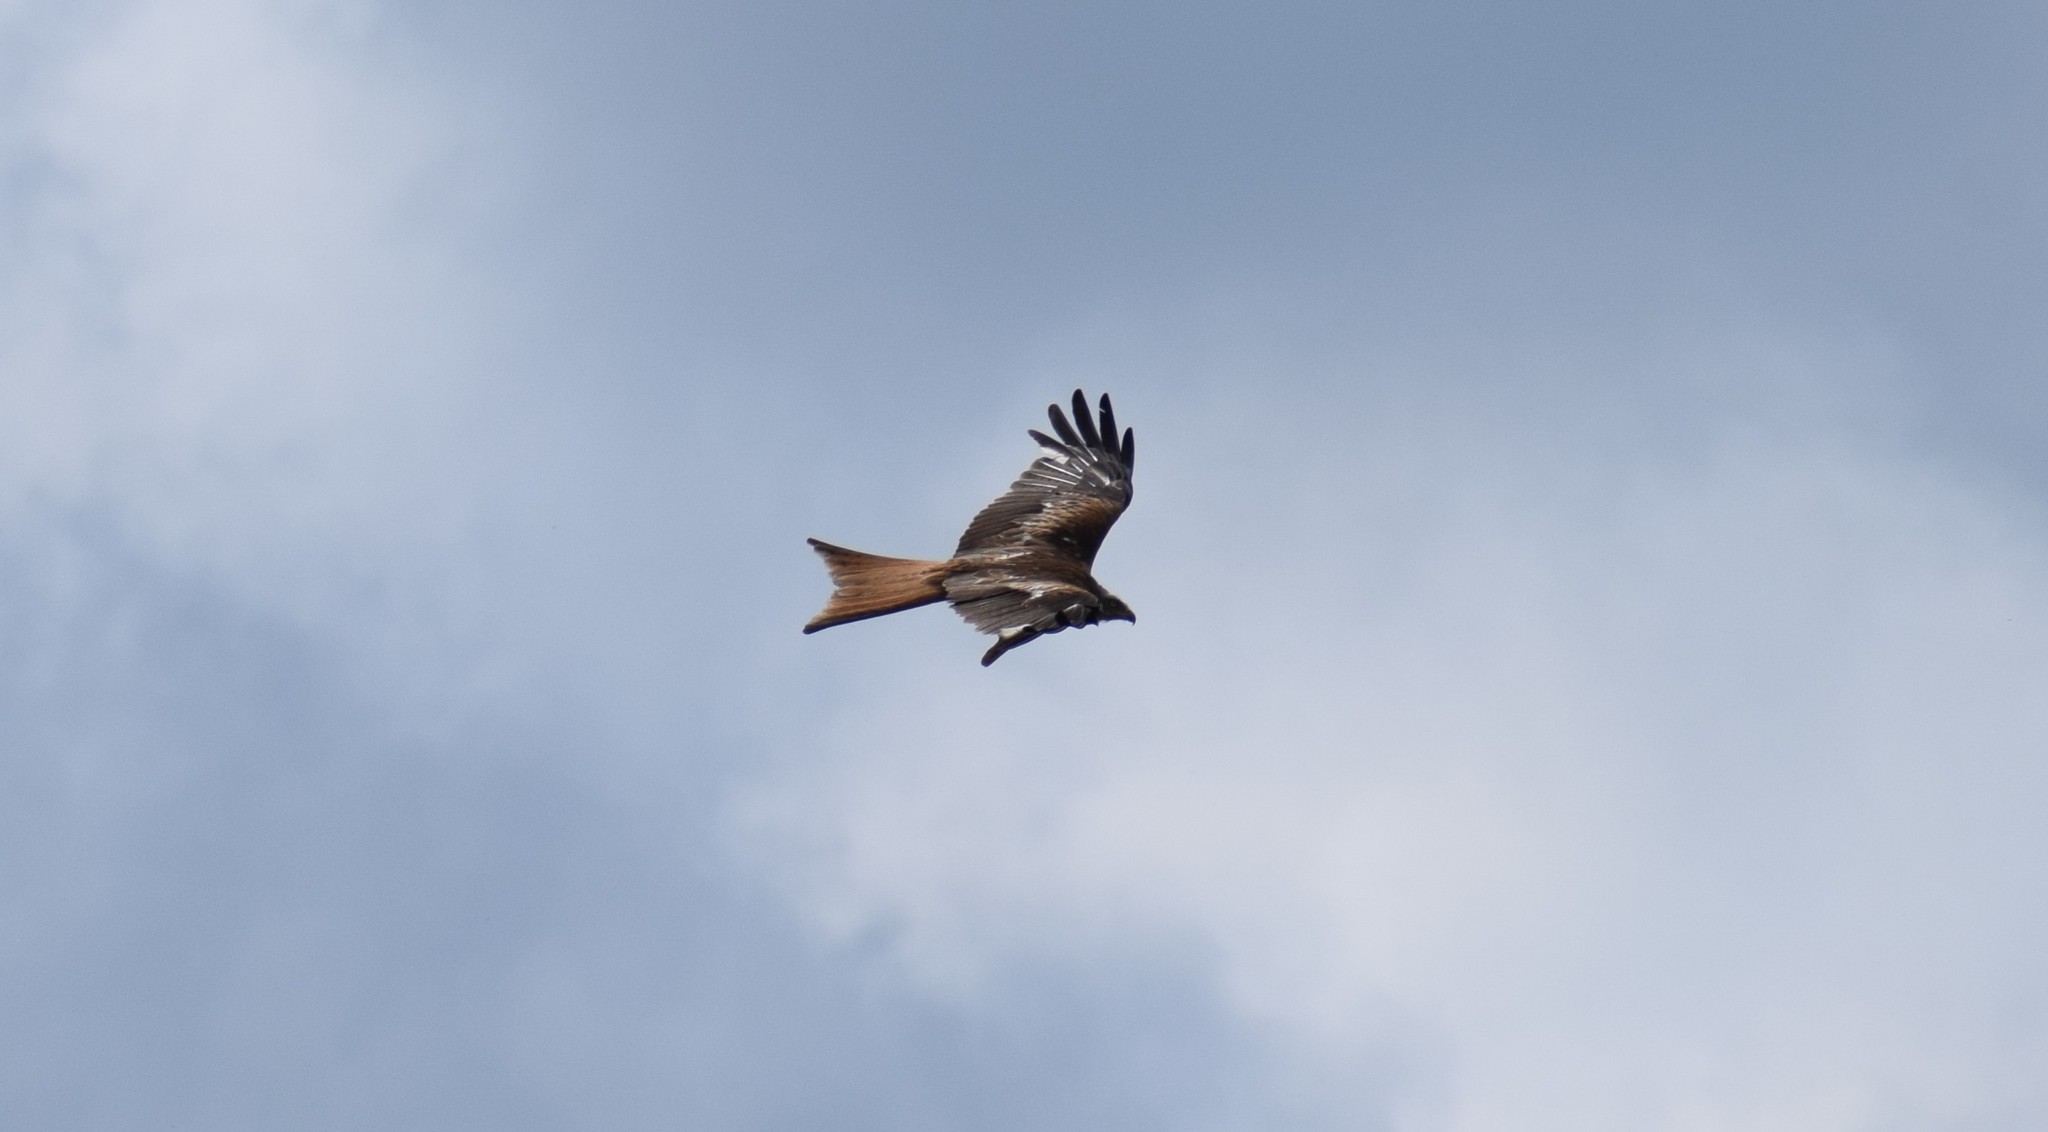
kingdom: Animalia
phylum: Chordata
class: Aves
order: Accipitriformes
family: Accipitridae
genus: Milvus
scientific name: Milvus milvus
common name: Red kite
